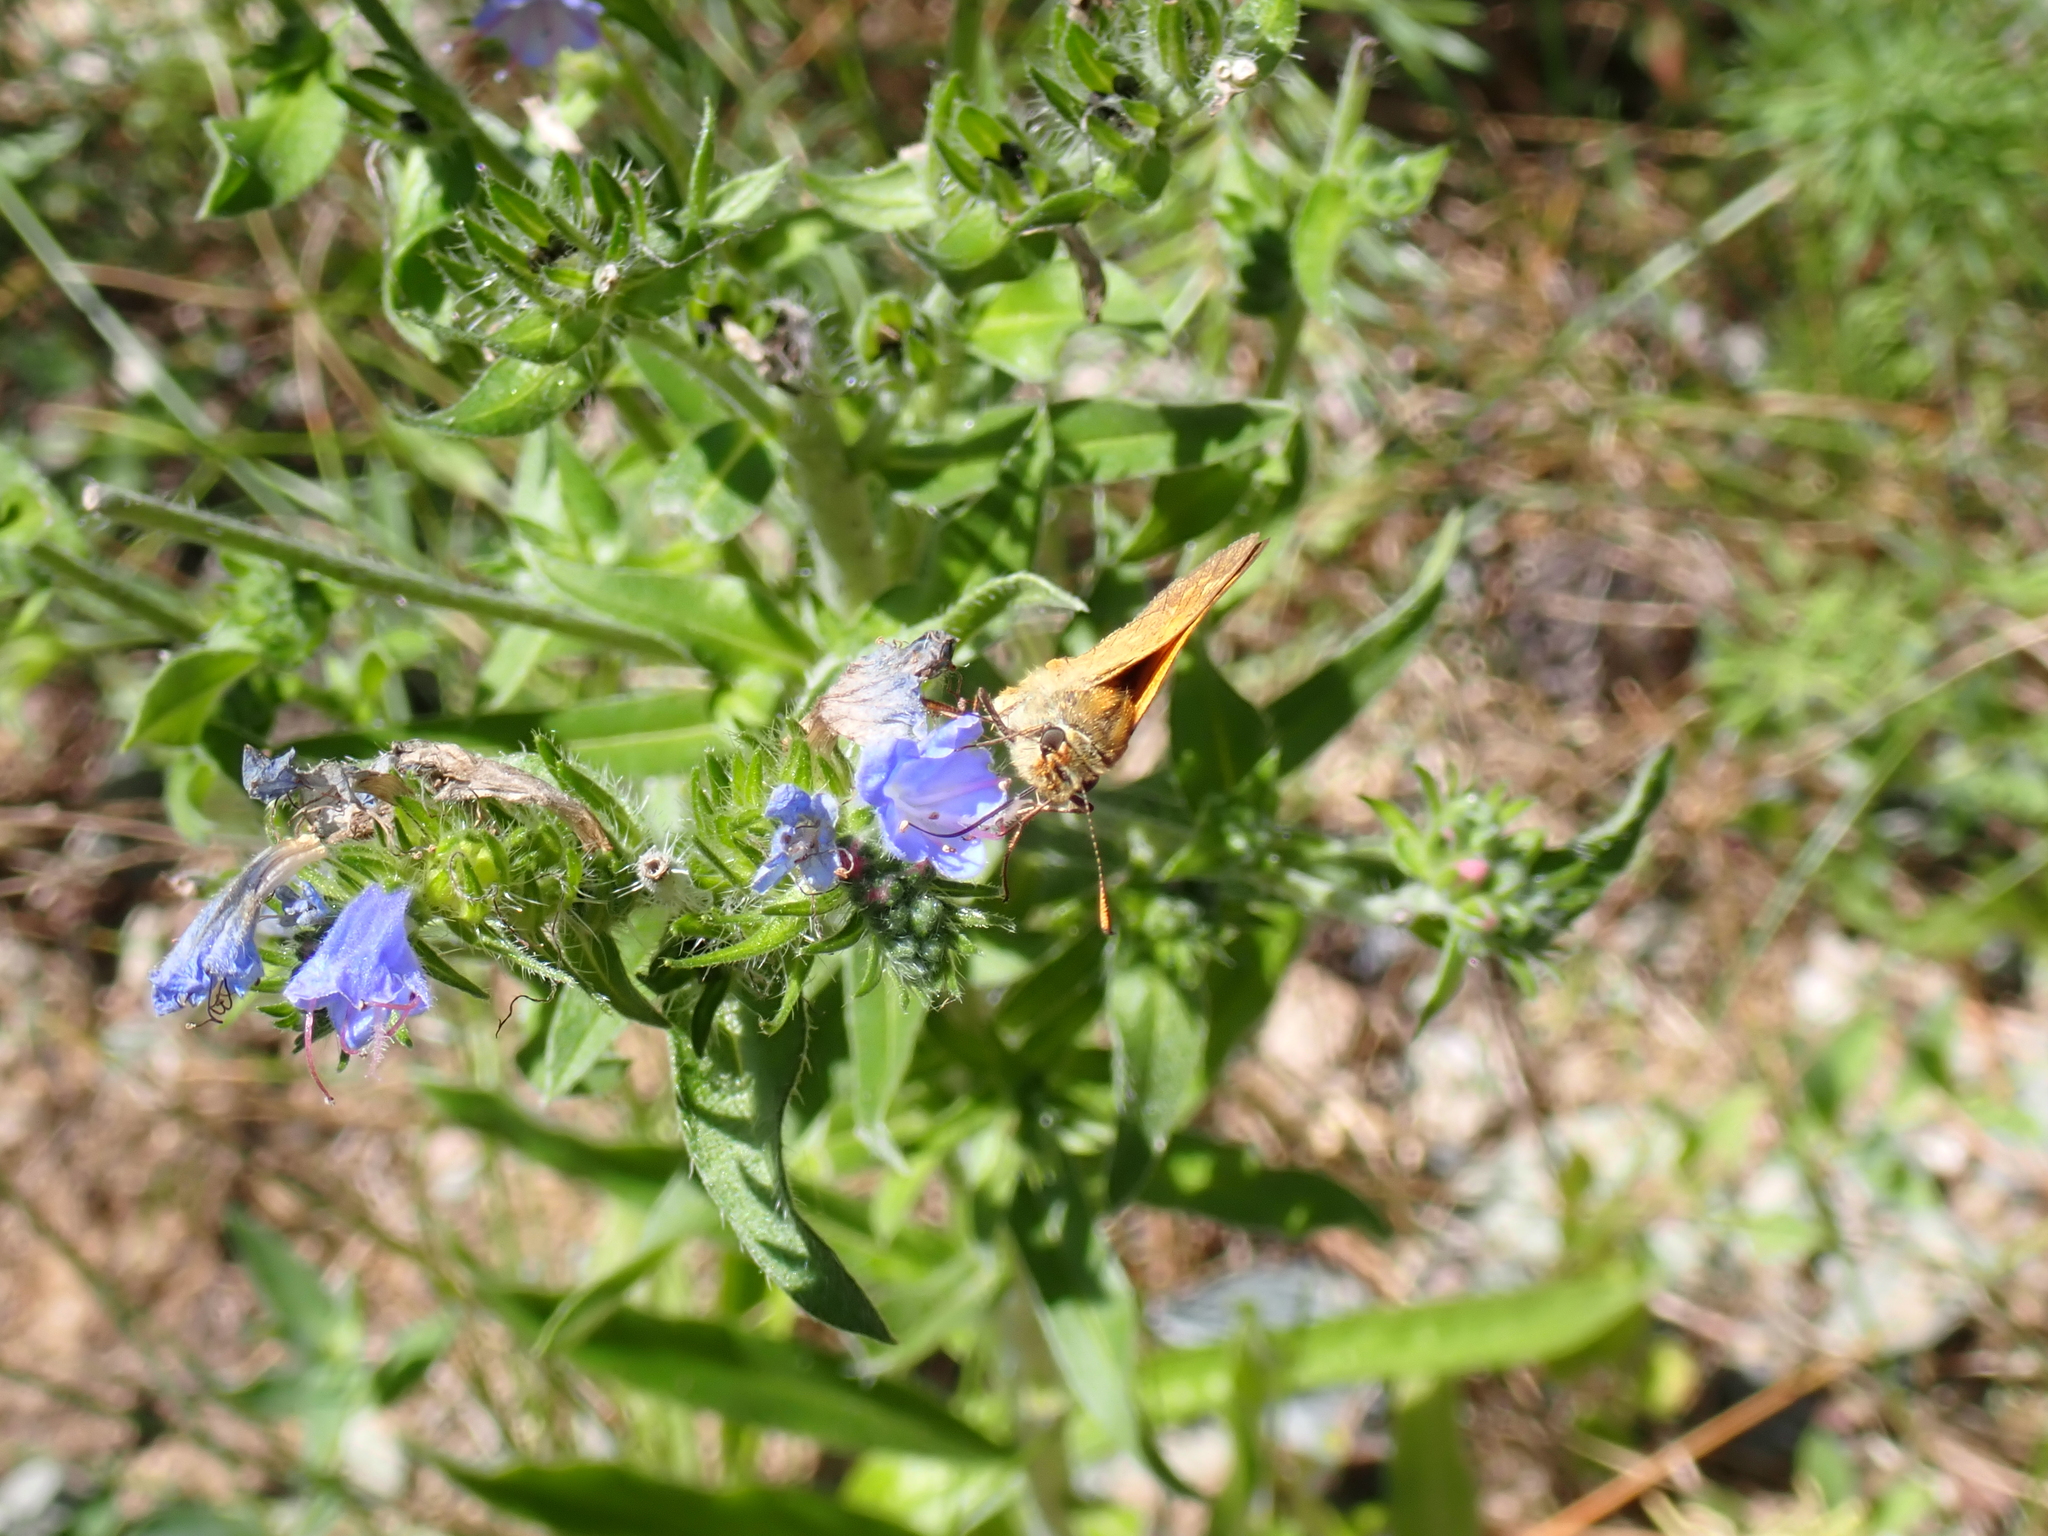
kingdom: Animalia
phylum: Arthropoda
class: Insecta
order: Lepidoptera
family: Hesperiidae
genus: Ochlodes
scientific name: Ochlodes venata
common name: Large skipper
